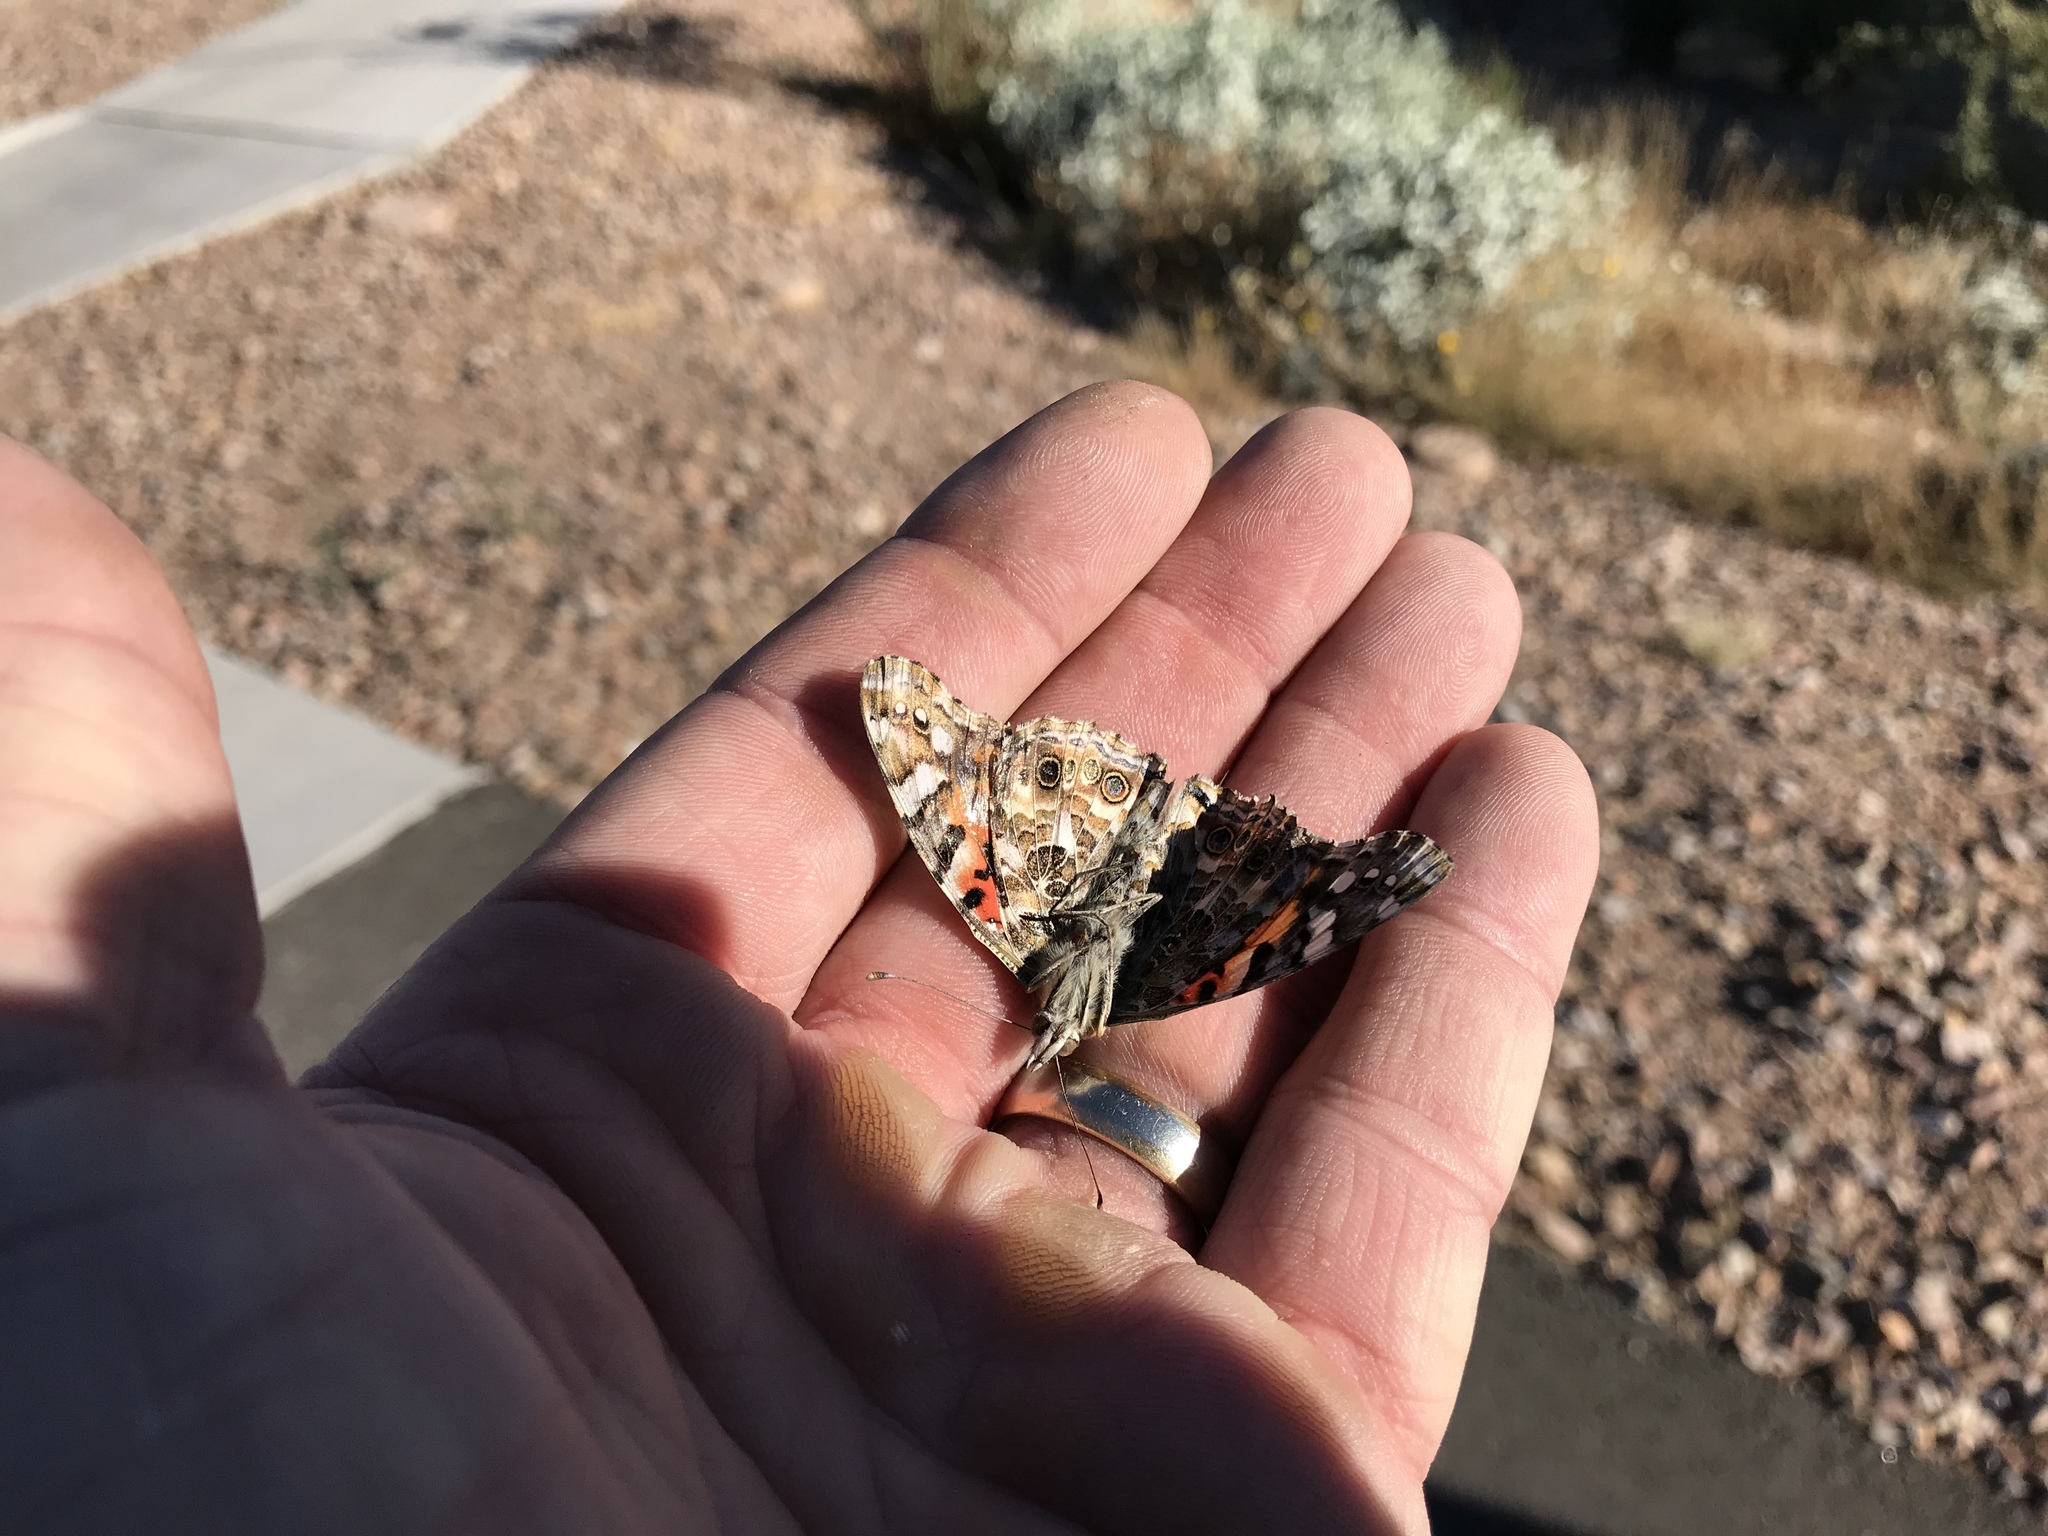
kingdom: Animalia
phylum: Arthropoda
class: Insecta
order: Lepidoptera
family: Nymphalidae
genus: Vanessa
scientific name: Vanessa cardui
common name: Painted lady
